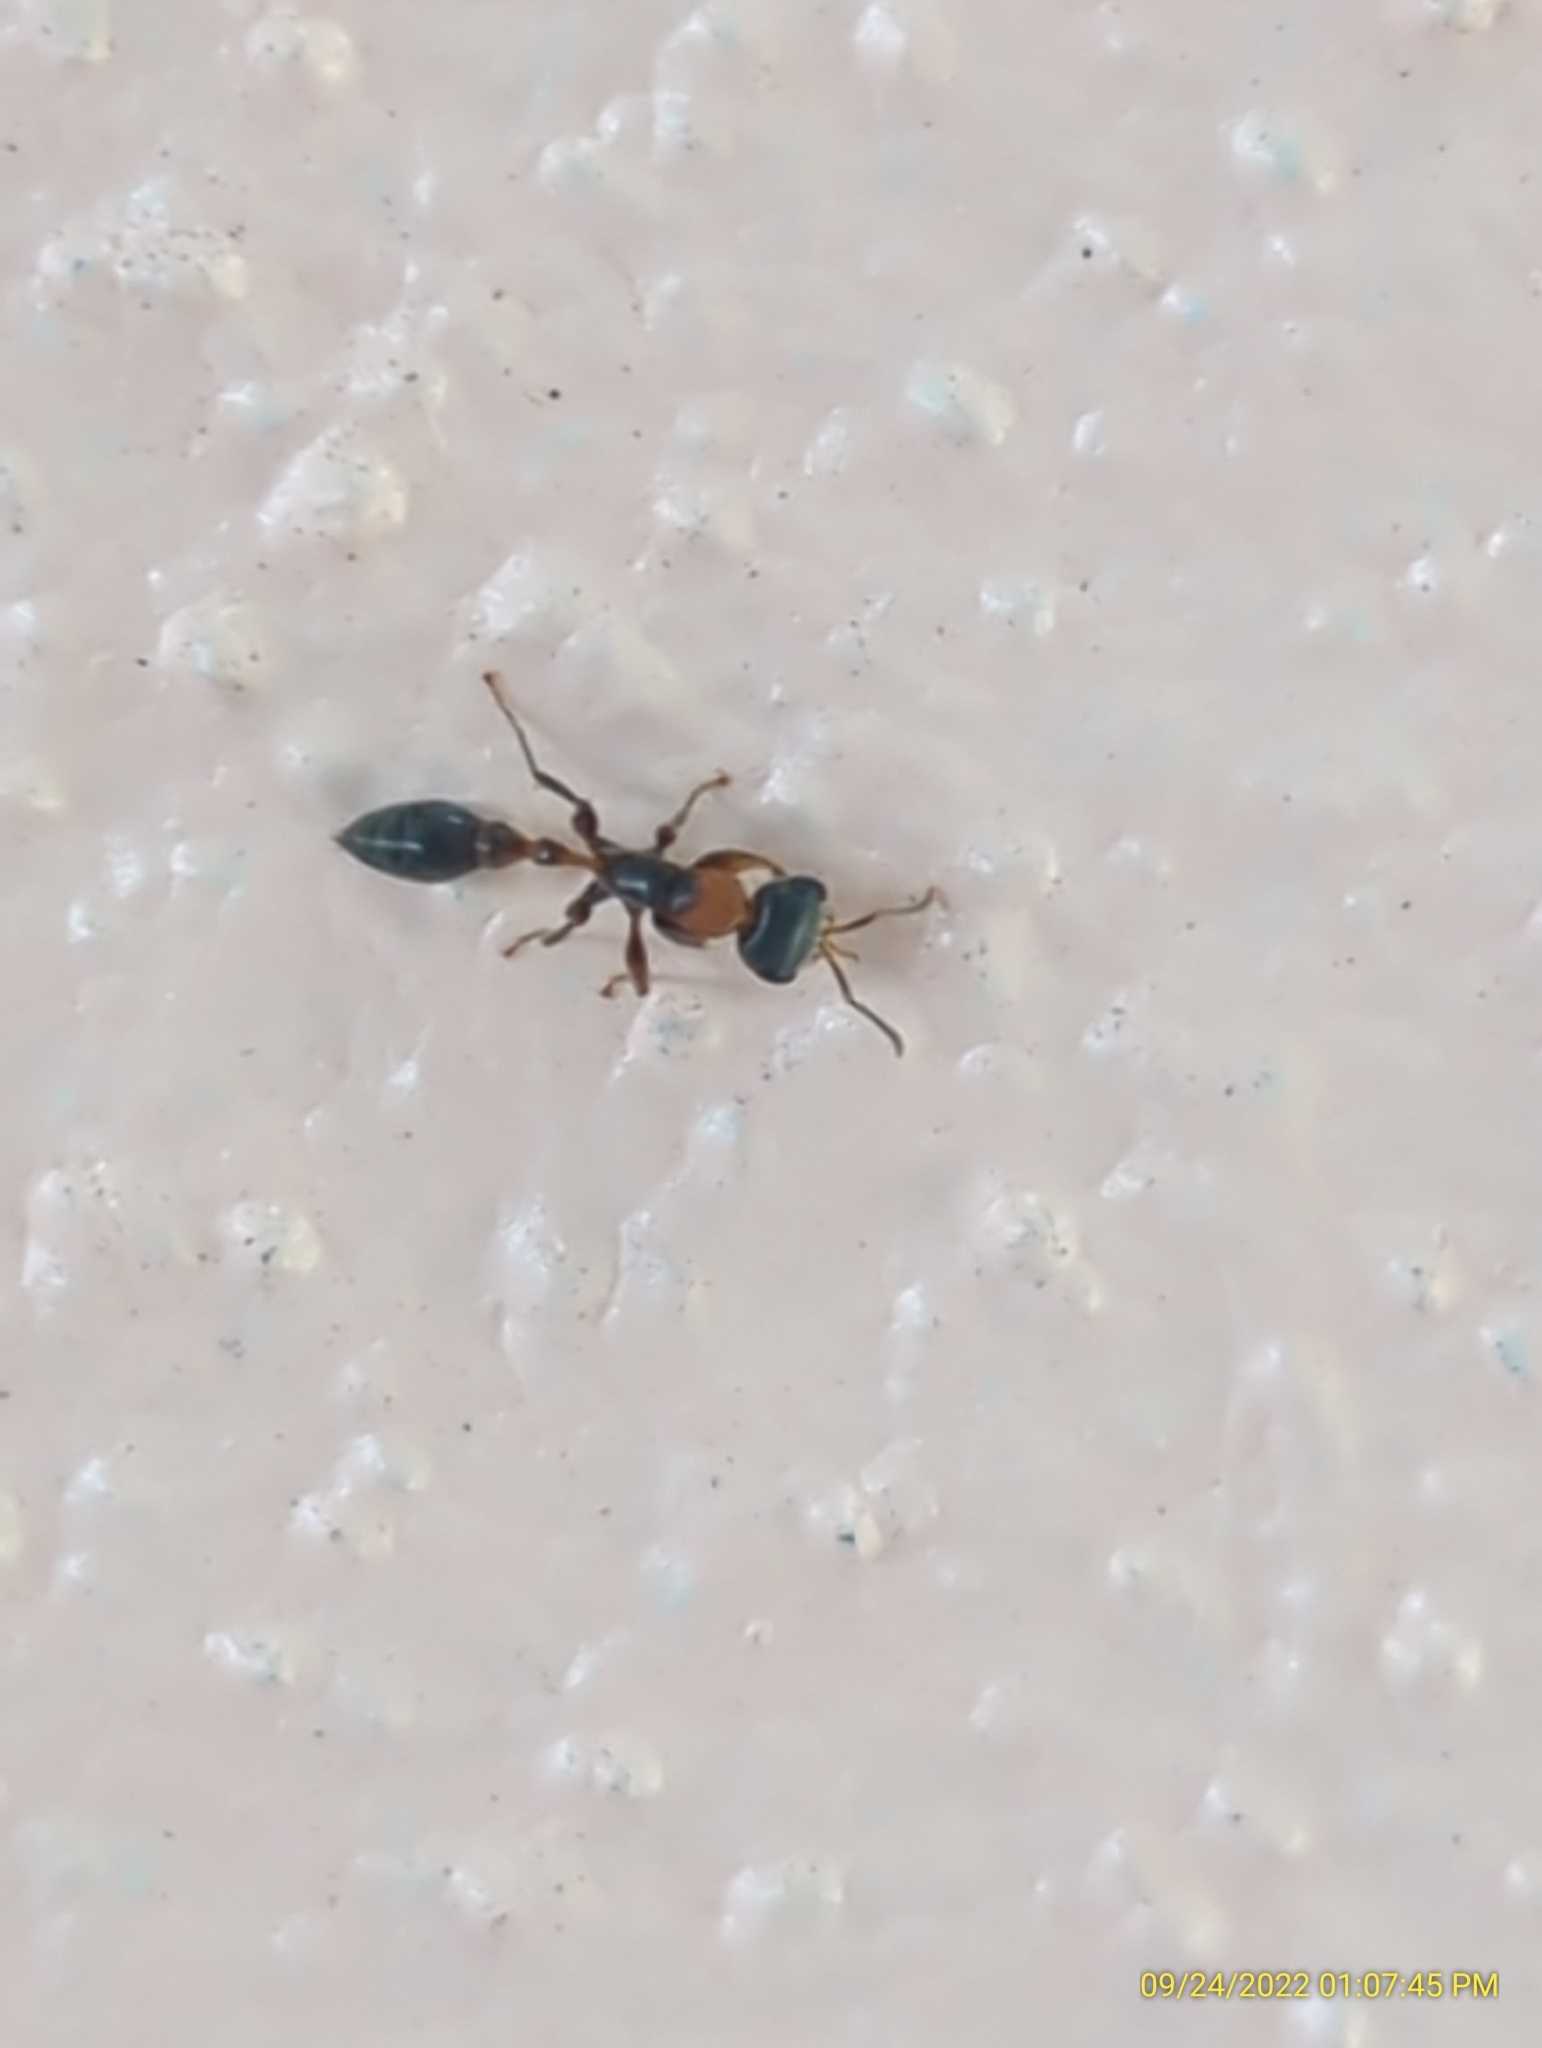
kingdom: Animalia
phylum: Arthropoda
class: Insecta
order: Hymenoptera
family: Formicidae
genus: Pseudomyrmex
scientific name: Pseudomyrmex gracilis
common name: Graceful twig ant
